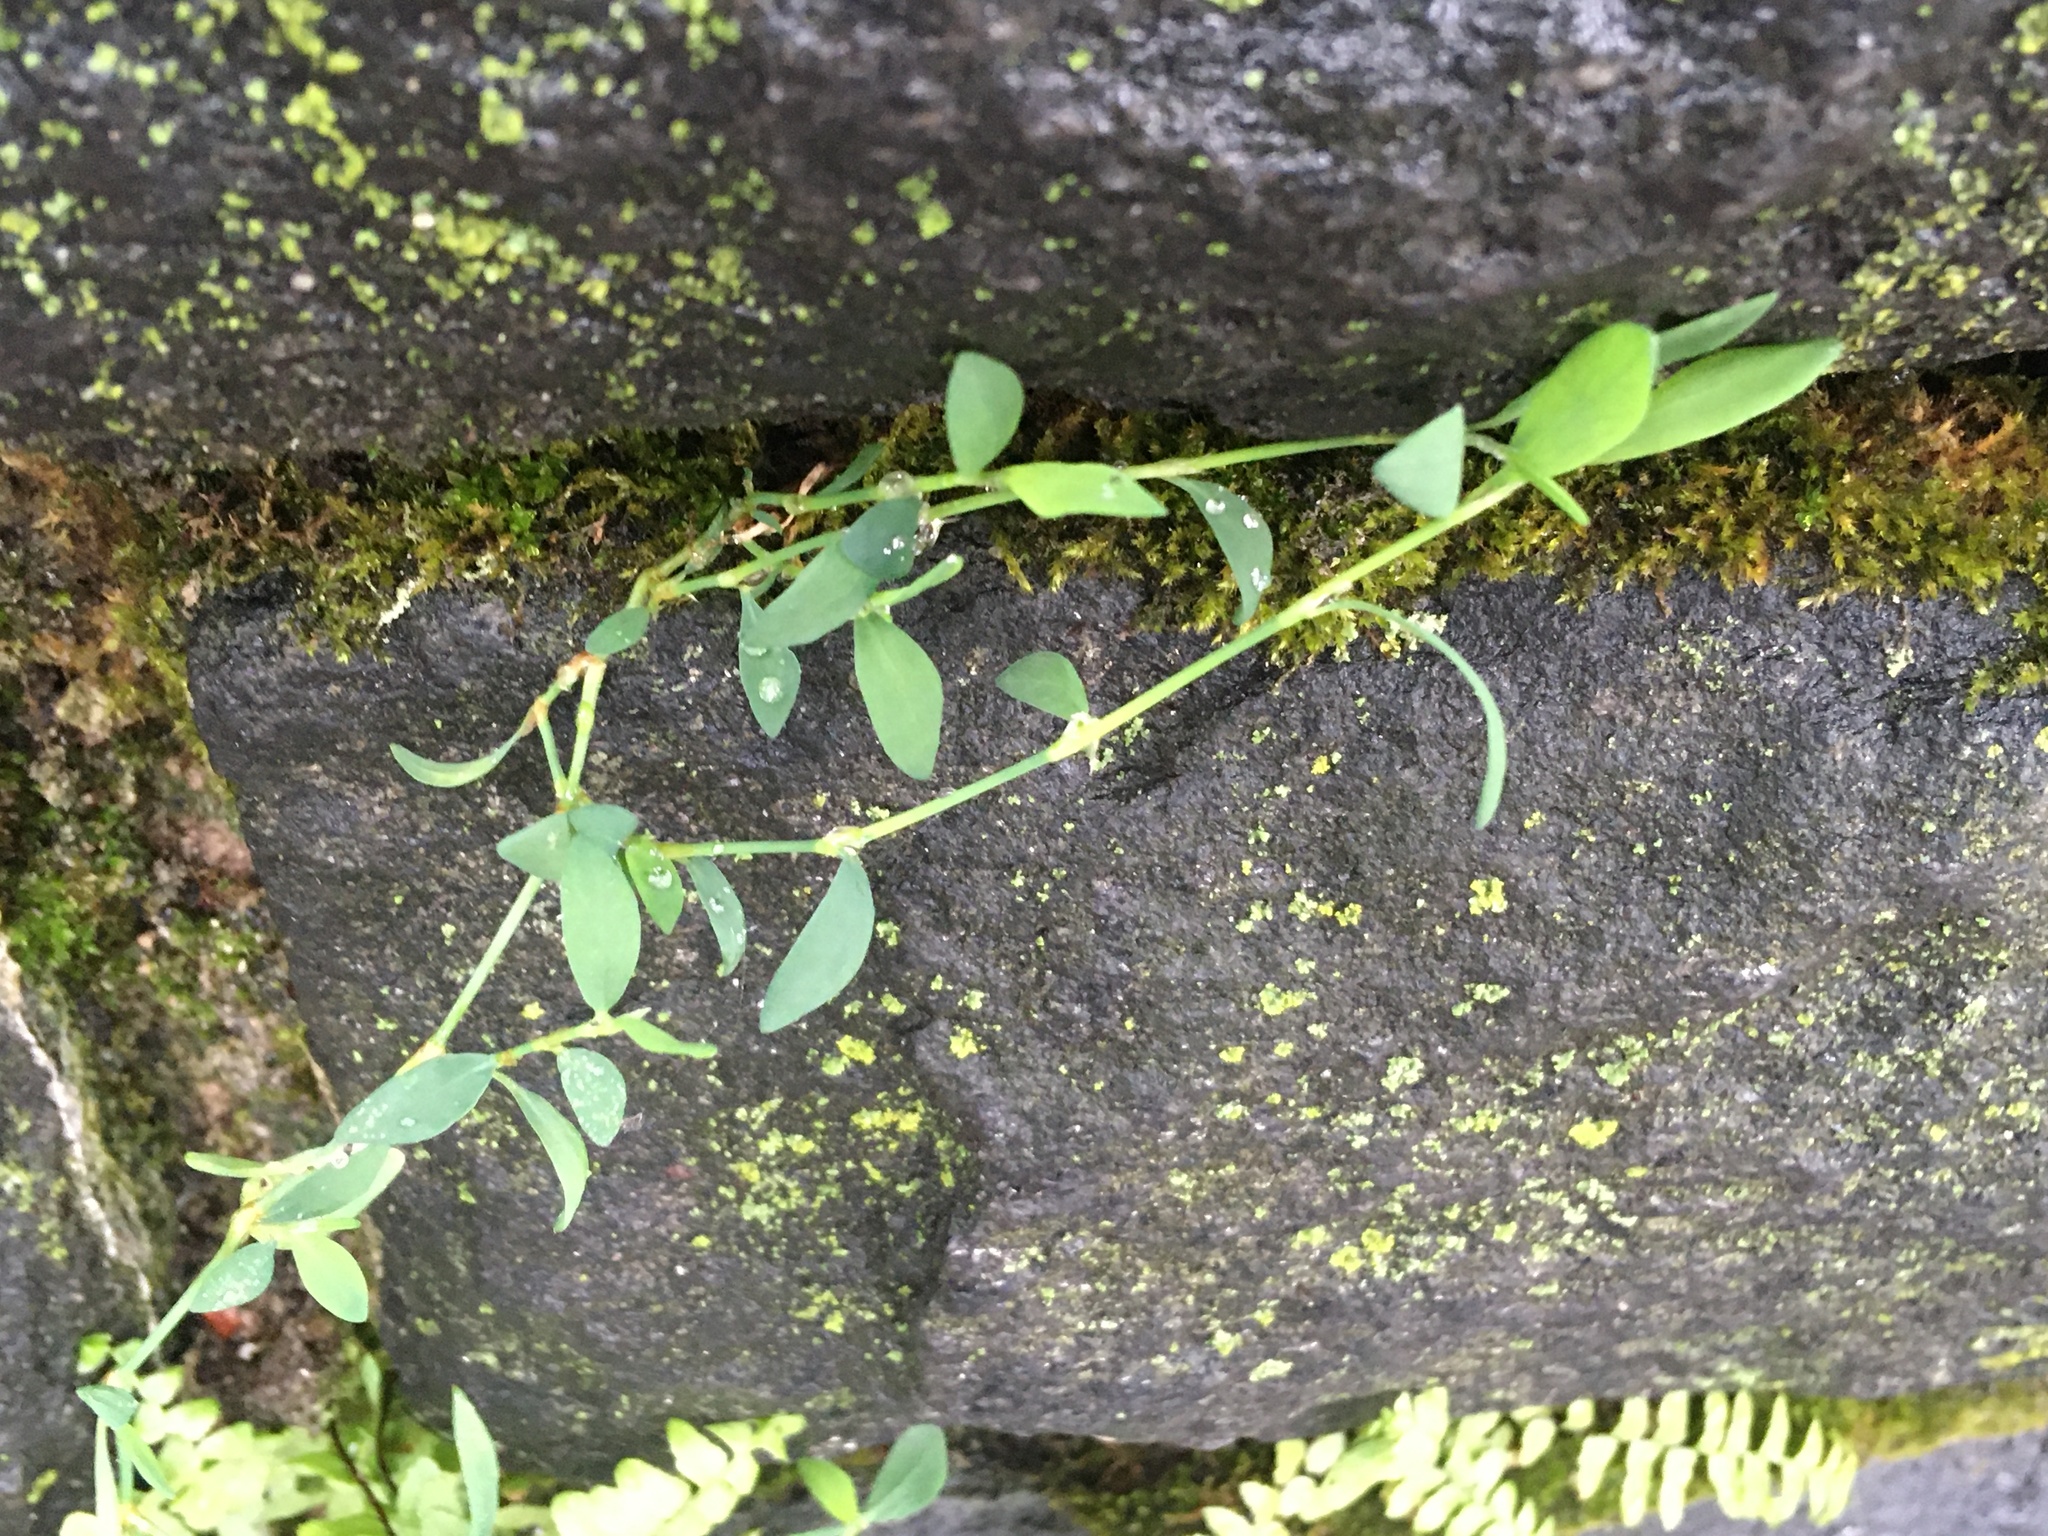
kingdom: Plantae
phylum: Tracheophyta
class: Magnoliopsida
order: Caryophyllales
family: Polygonaceae
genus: Polygonum
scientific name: Polygonum aviculare
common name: Prostrate knotweed
